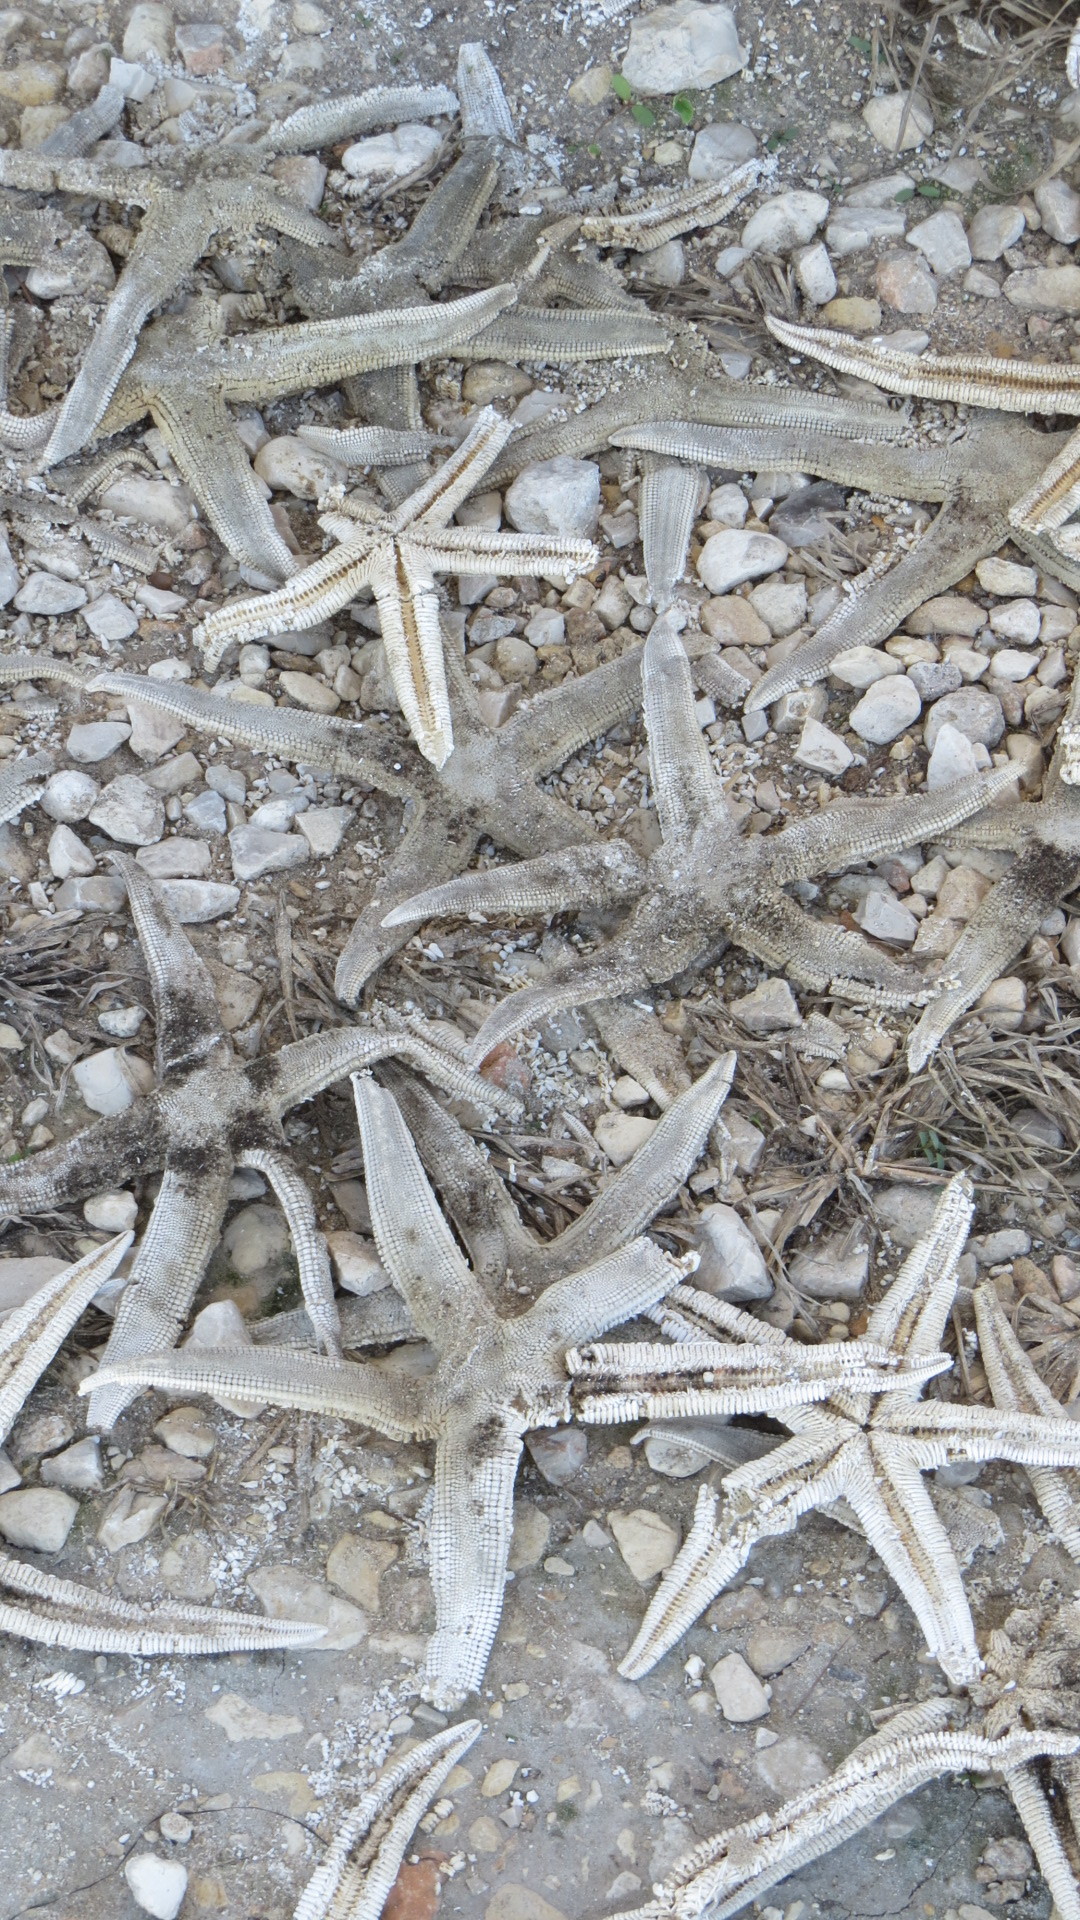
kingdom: Animalia
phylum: Echinodermata
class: Asteroidea
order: Paxillosida
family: Luidiidae
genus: Luidia
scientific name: Luidia clathrata
